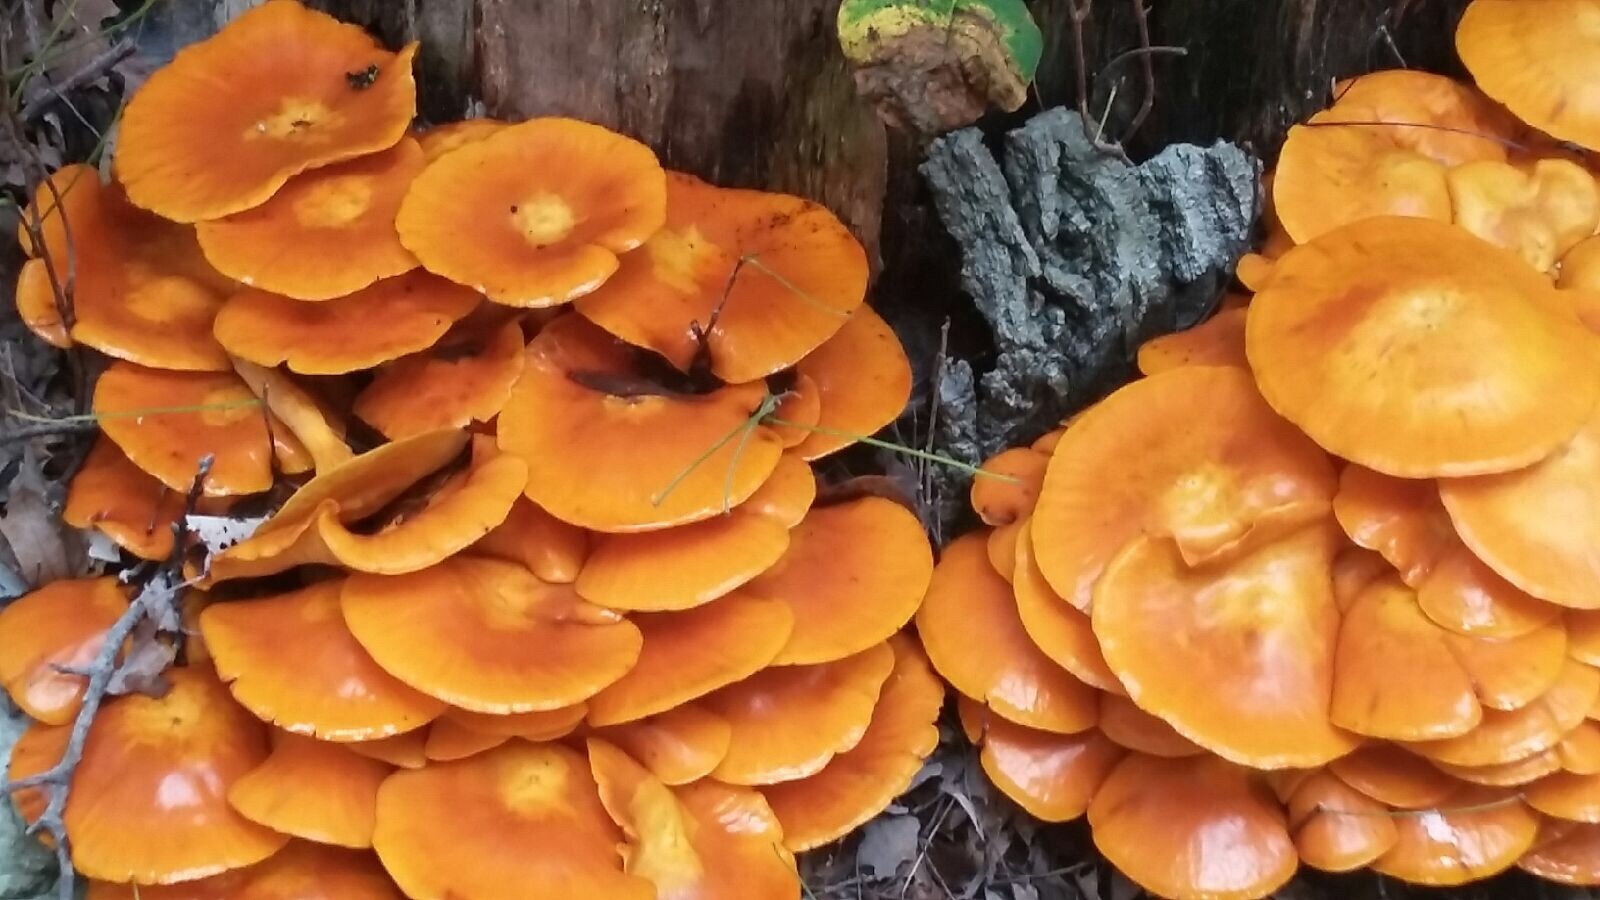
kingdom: Fungi
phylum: Basidiomycota
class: Agaricomycetes
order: Agaricales
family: Physalacriaceae
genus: Flammulina
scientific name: Flammulina velutipes
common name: Velvet shank
